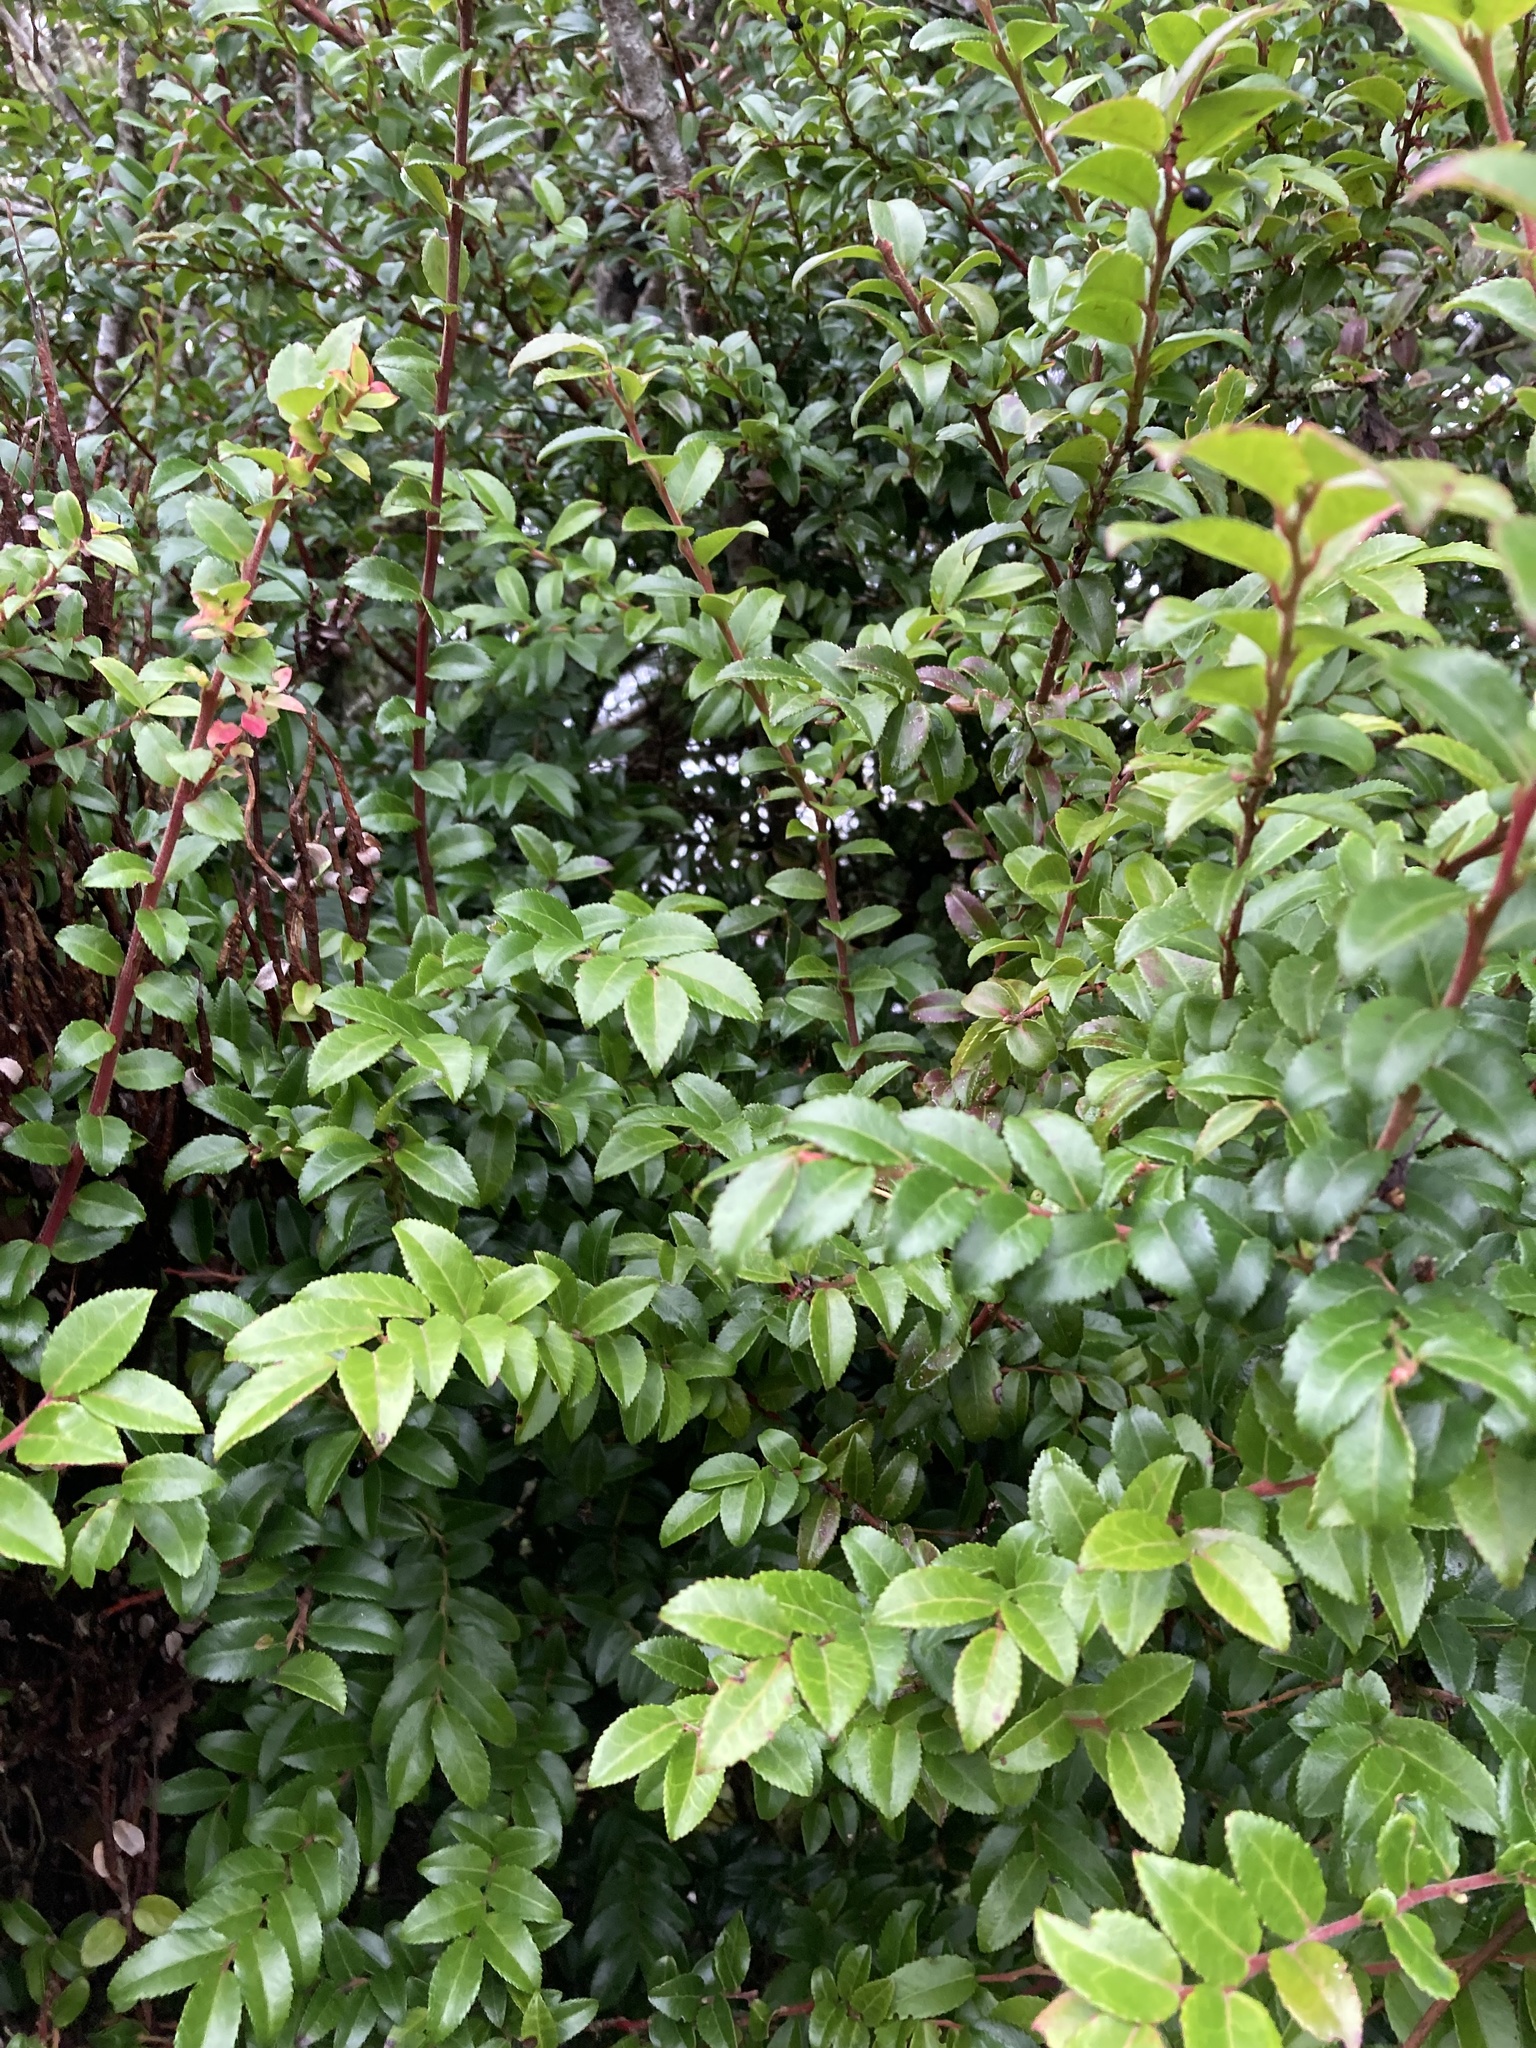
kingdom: Plantae
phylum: Tracheophyta
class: Magnoliopsida
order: Ericales
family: Ericaceae
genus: Vaccinium
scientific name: Vaccinium ovatum
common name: California-huckleberry
